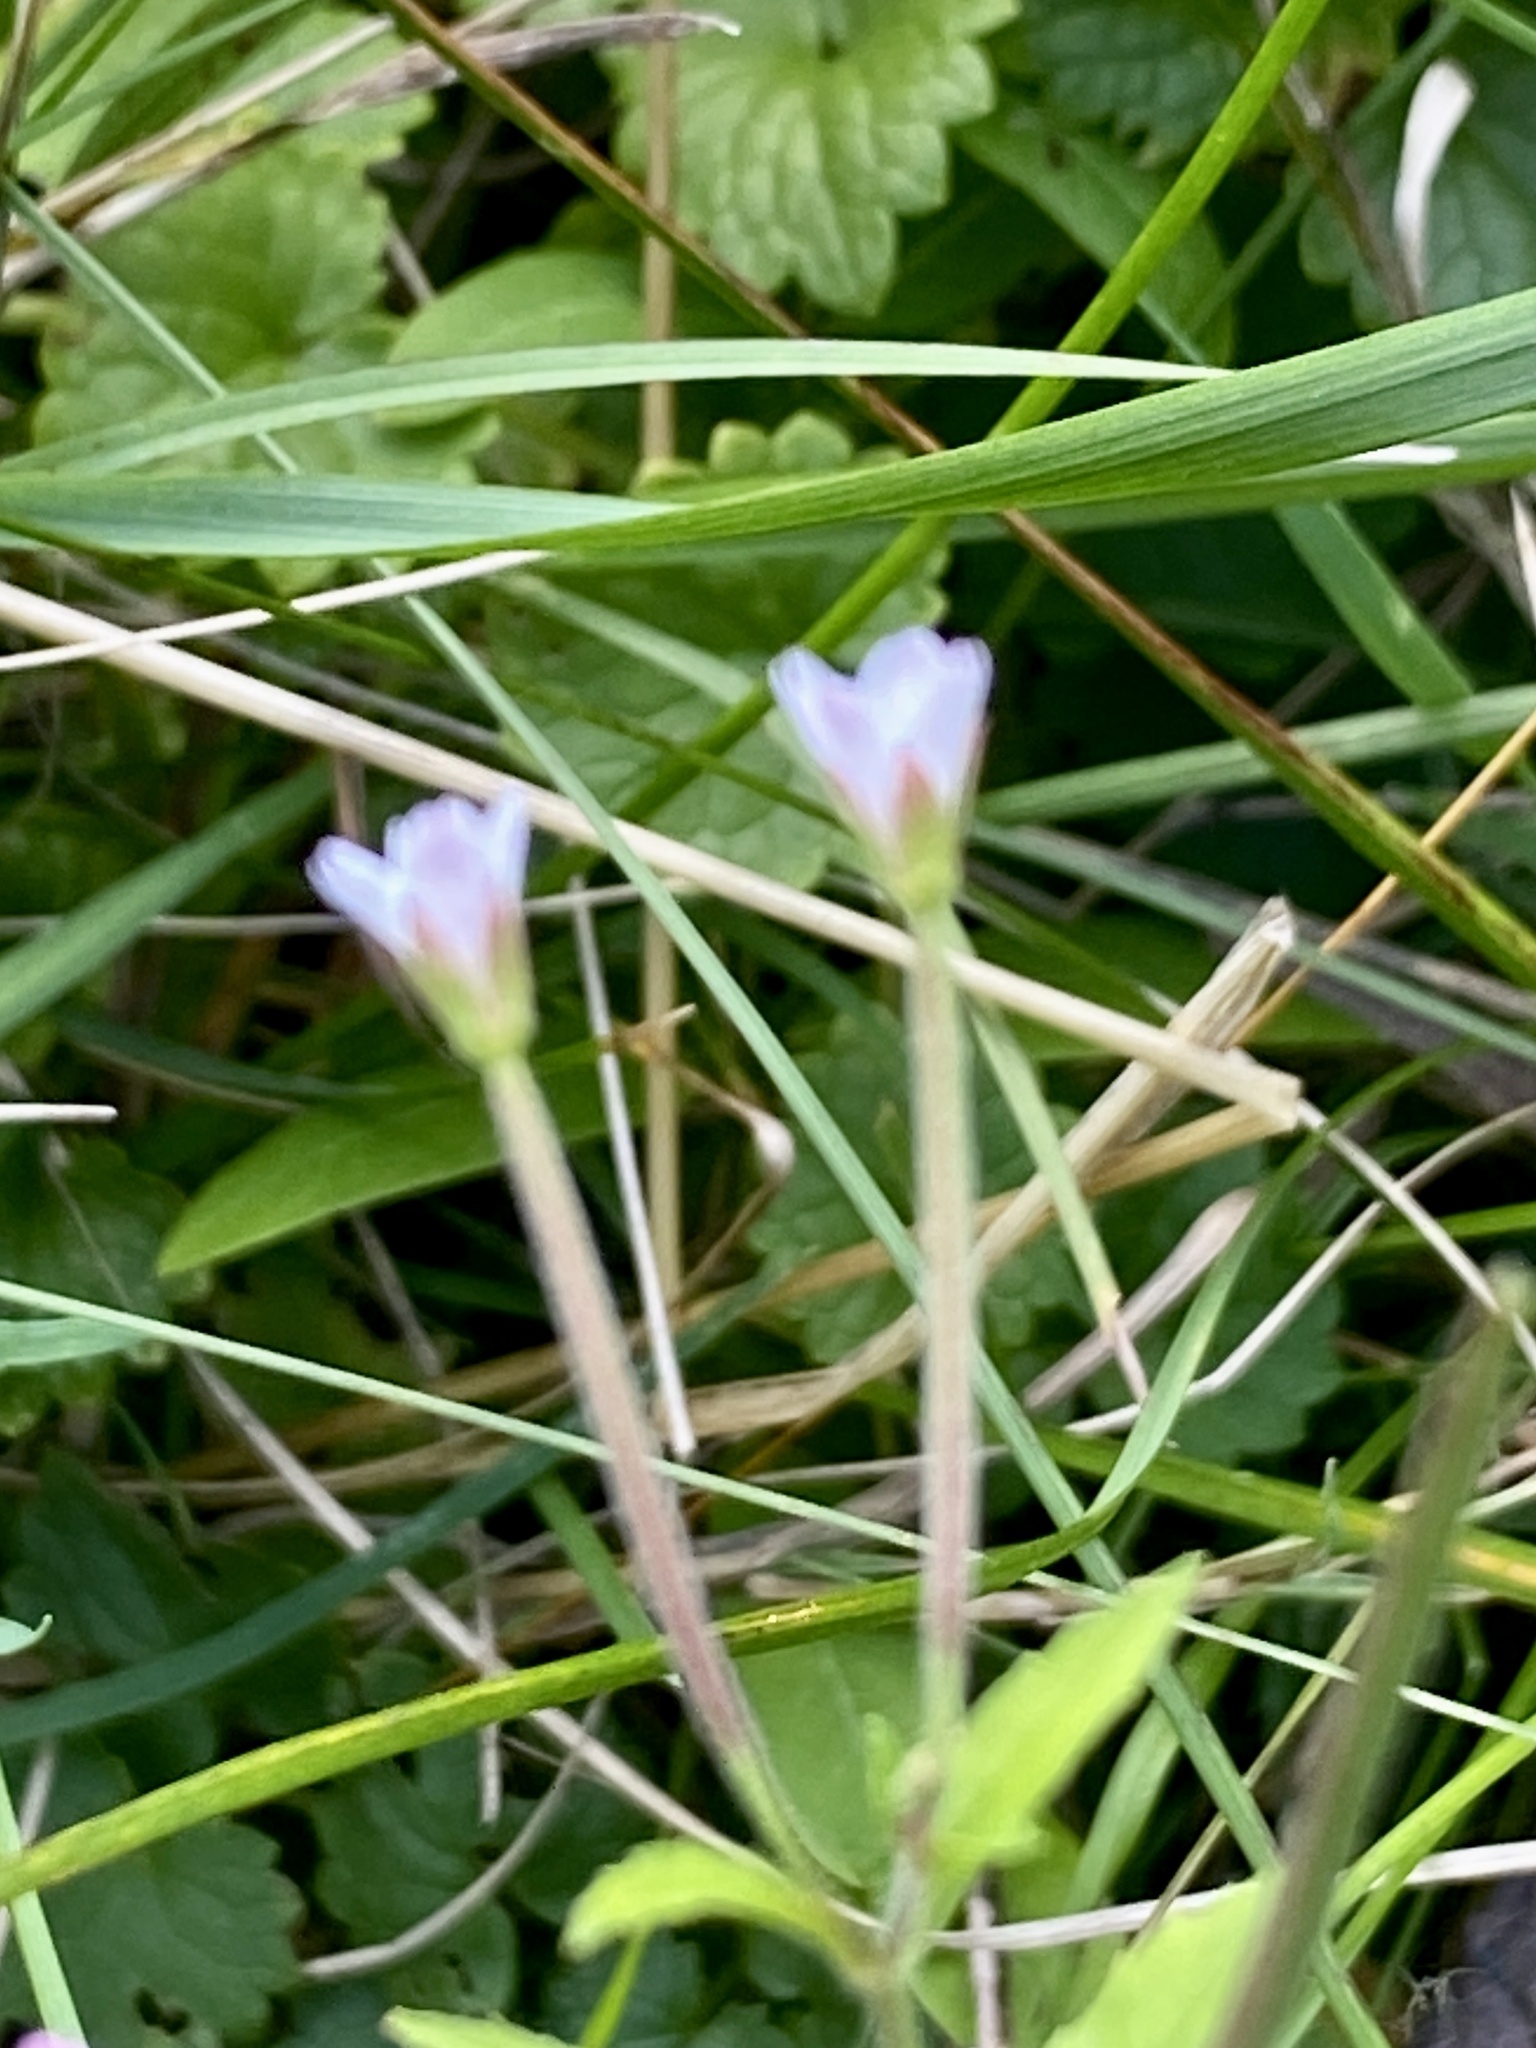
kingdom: Plantae
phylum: Tracheophyta
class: Magnoliopsida
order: Myrtales
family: Onagraceae
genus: Epilobium
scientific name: Epilobium coloratum
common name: Bronze willowherb
